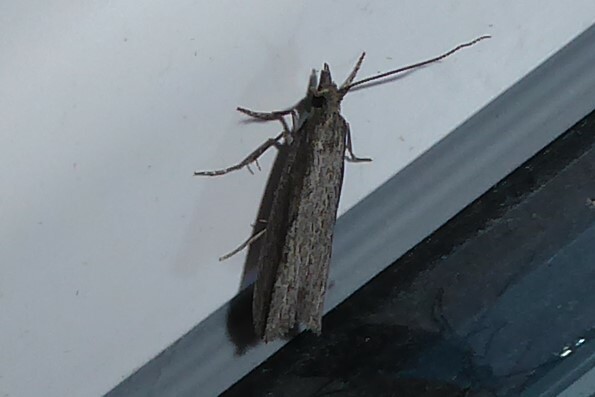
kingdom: Animalia
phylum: Arthropoda
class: Insecta
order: Lepidoptera
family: Tortricidae
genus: Strepsicrates
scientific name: Strepsicrates infensa
